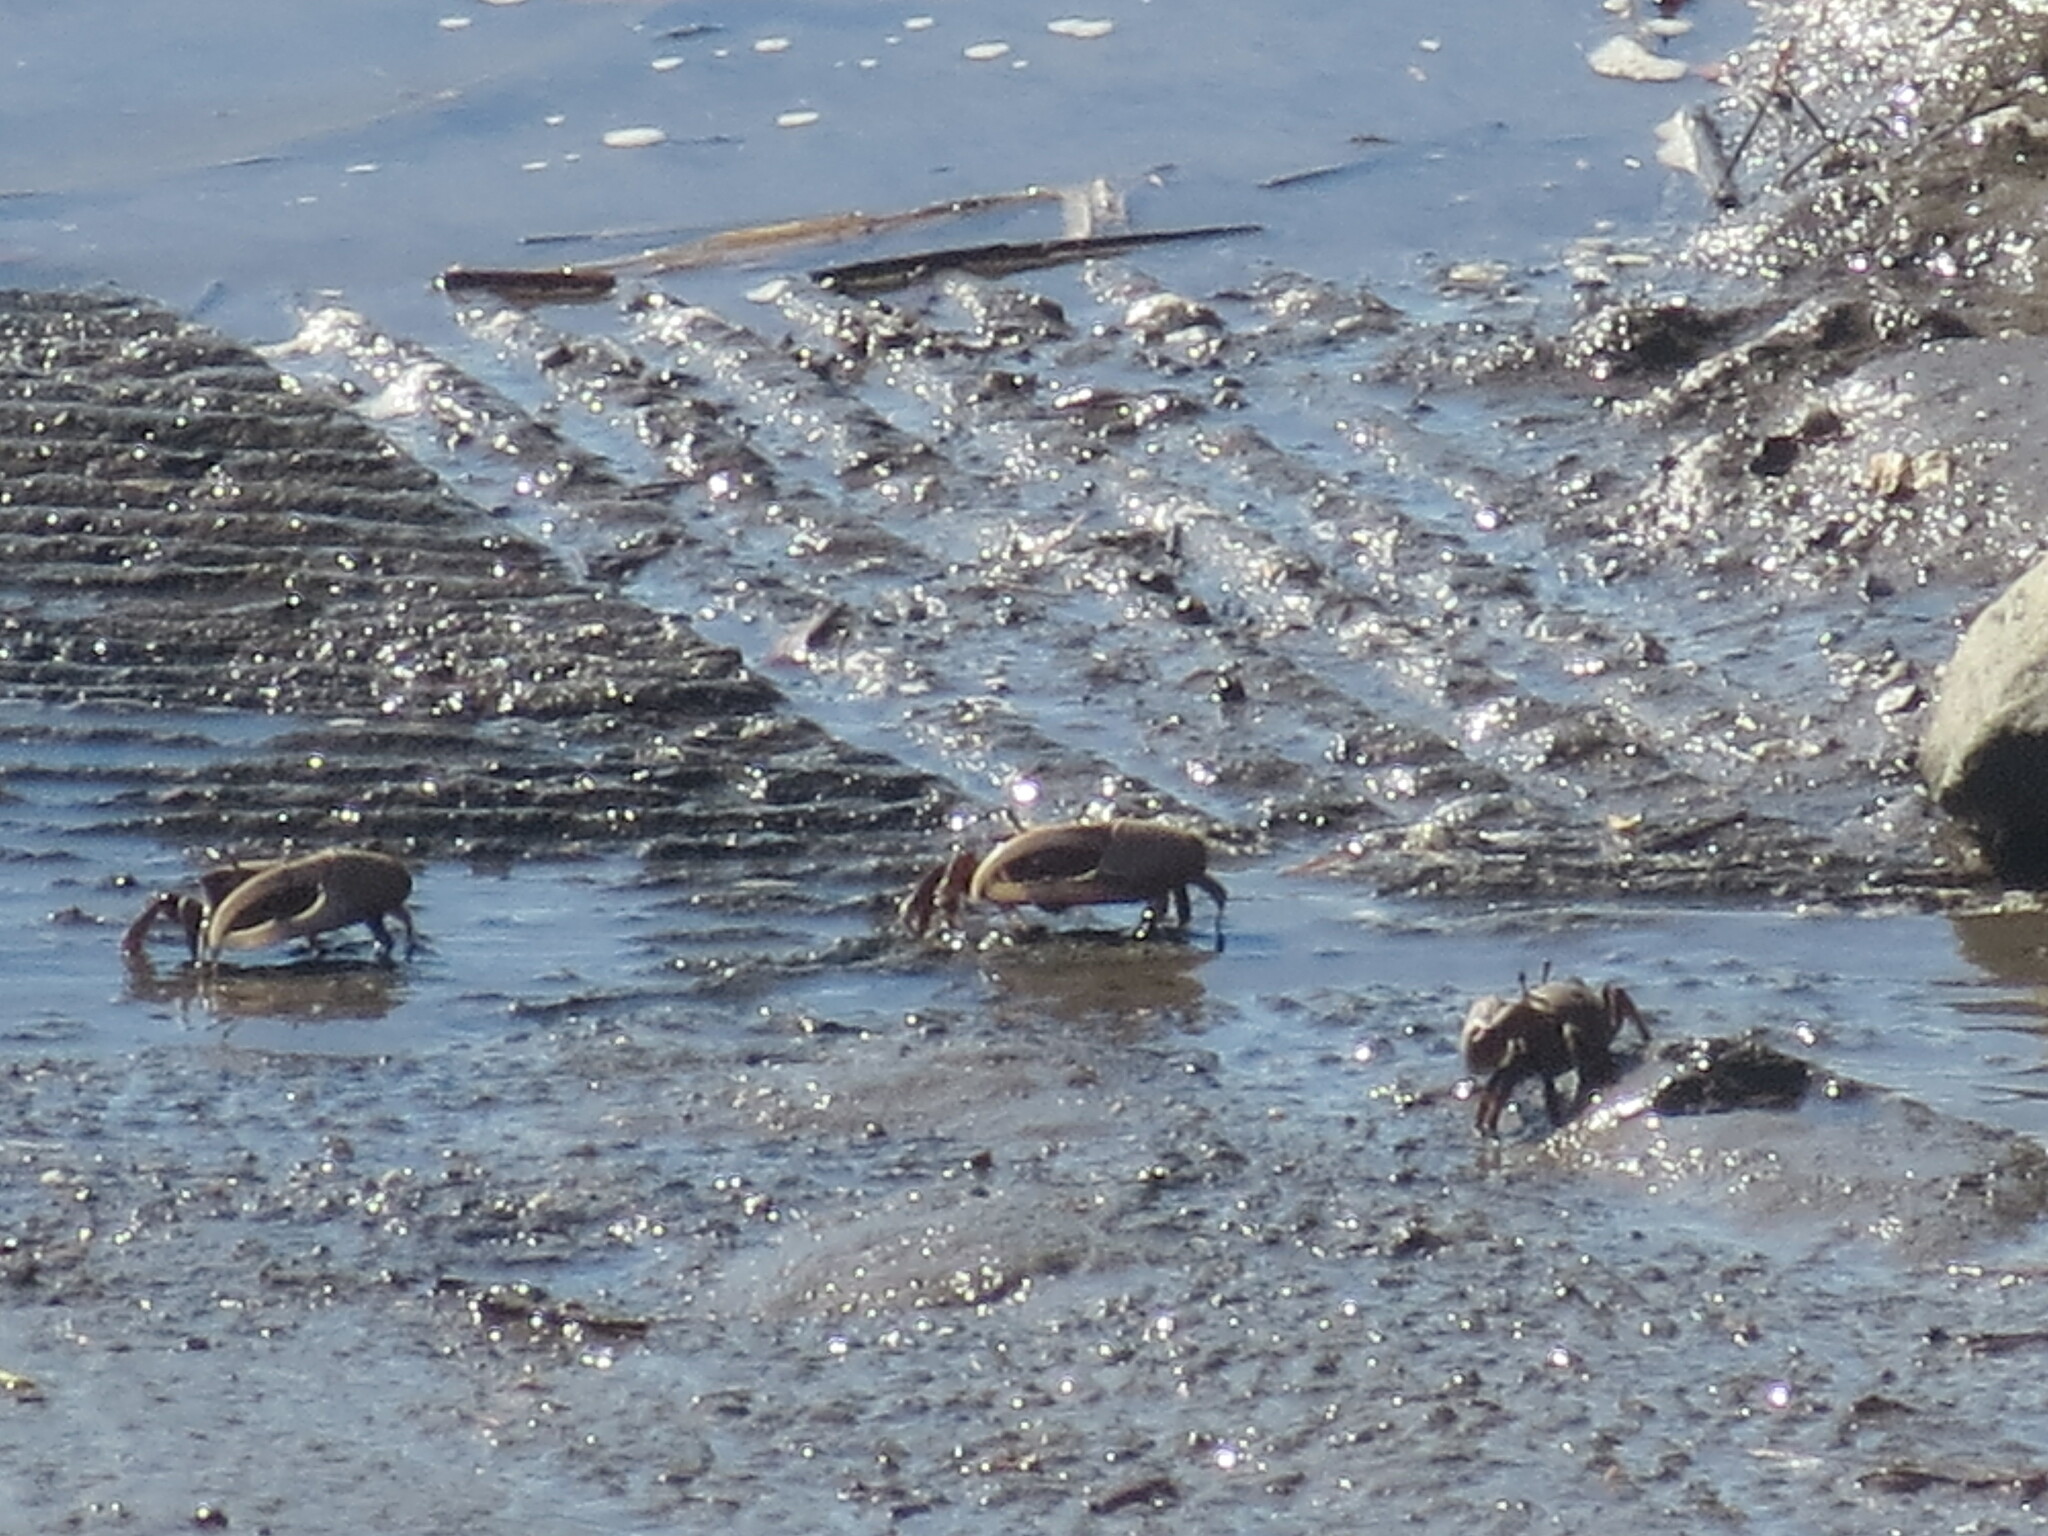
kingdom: Animalia
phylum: Arthropoda
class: Malacostraca
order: Decapoda
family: Ocypodidae
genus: Minuca
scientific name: Minuca minax
